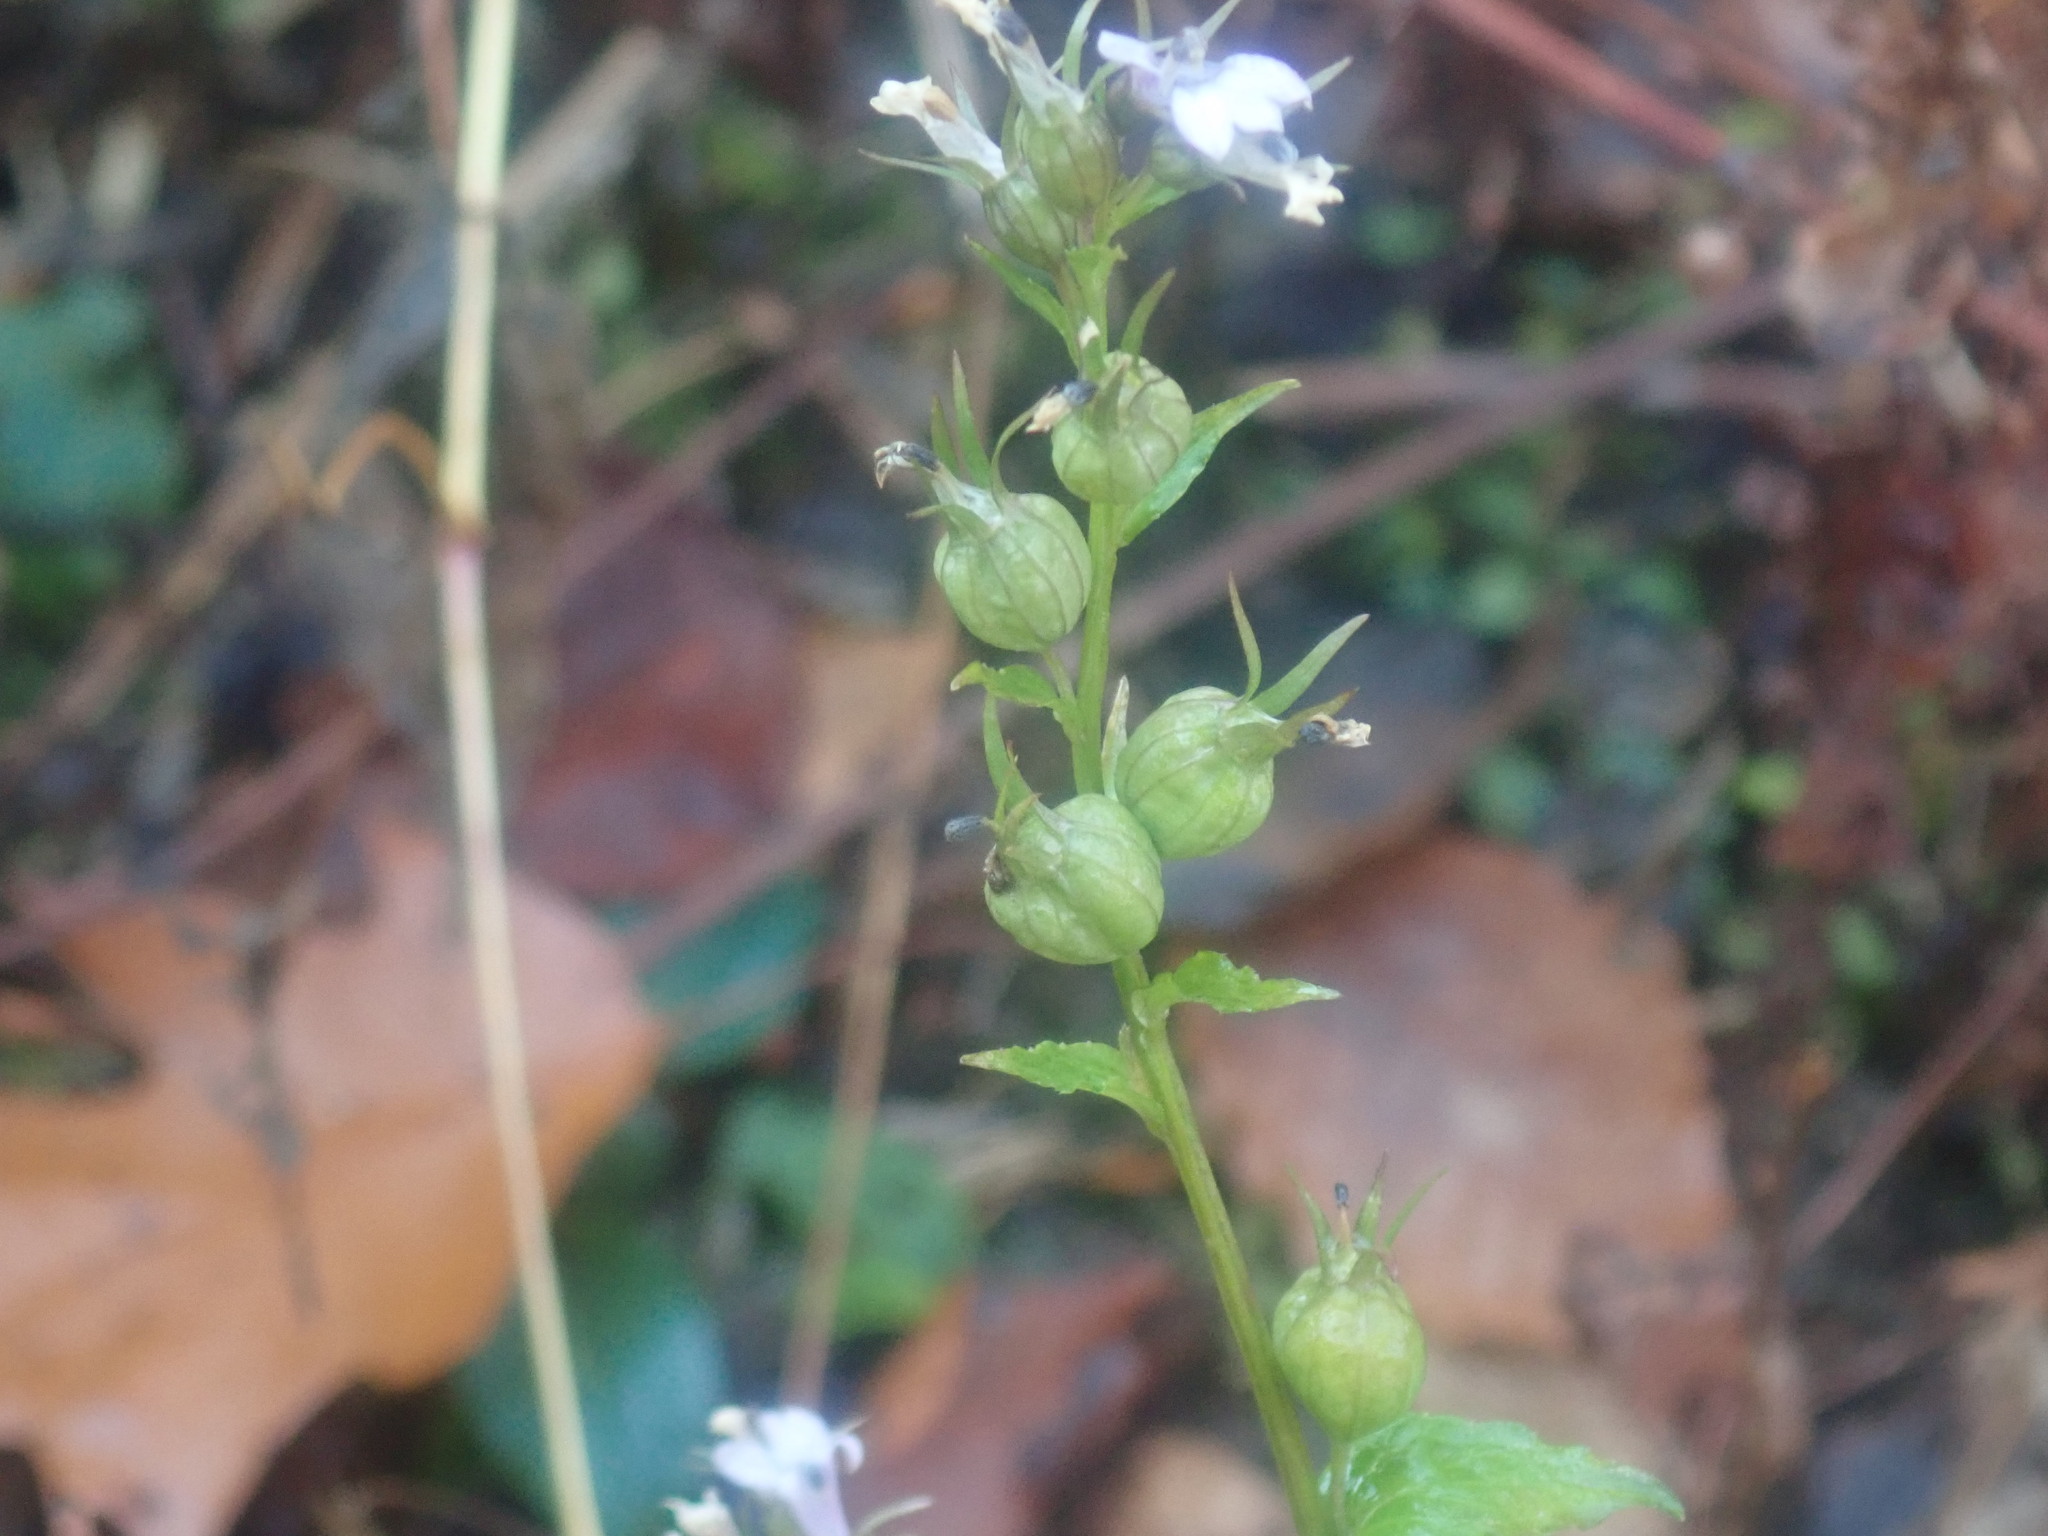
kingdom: Plantae
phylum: Tracheophyta
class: Magnoliopsida
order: Asterales
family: Campanulaceae
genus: Lobelia
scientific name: Lobelia inflata
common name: Indian tobacco
